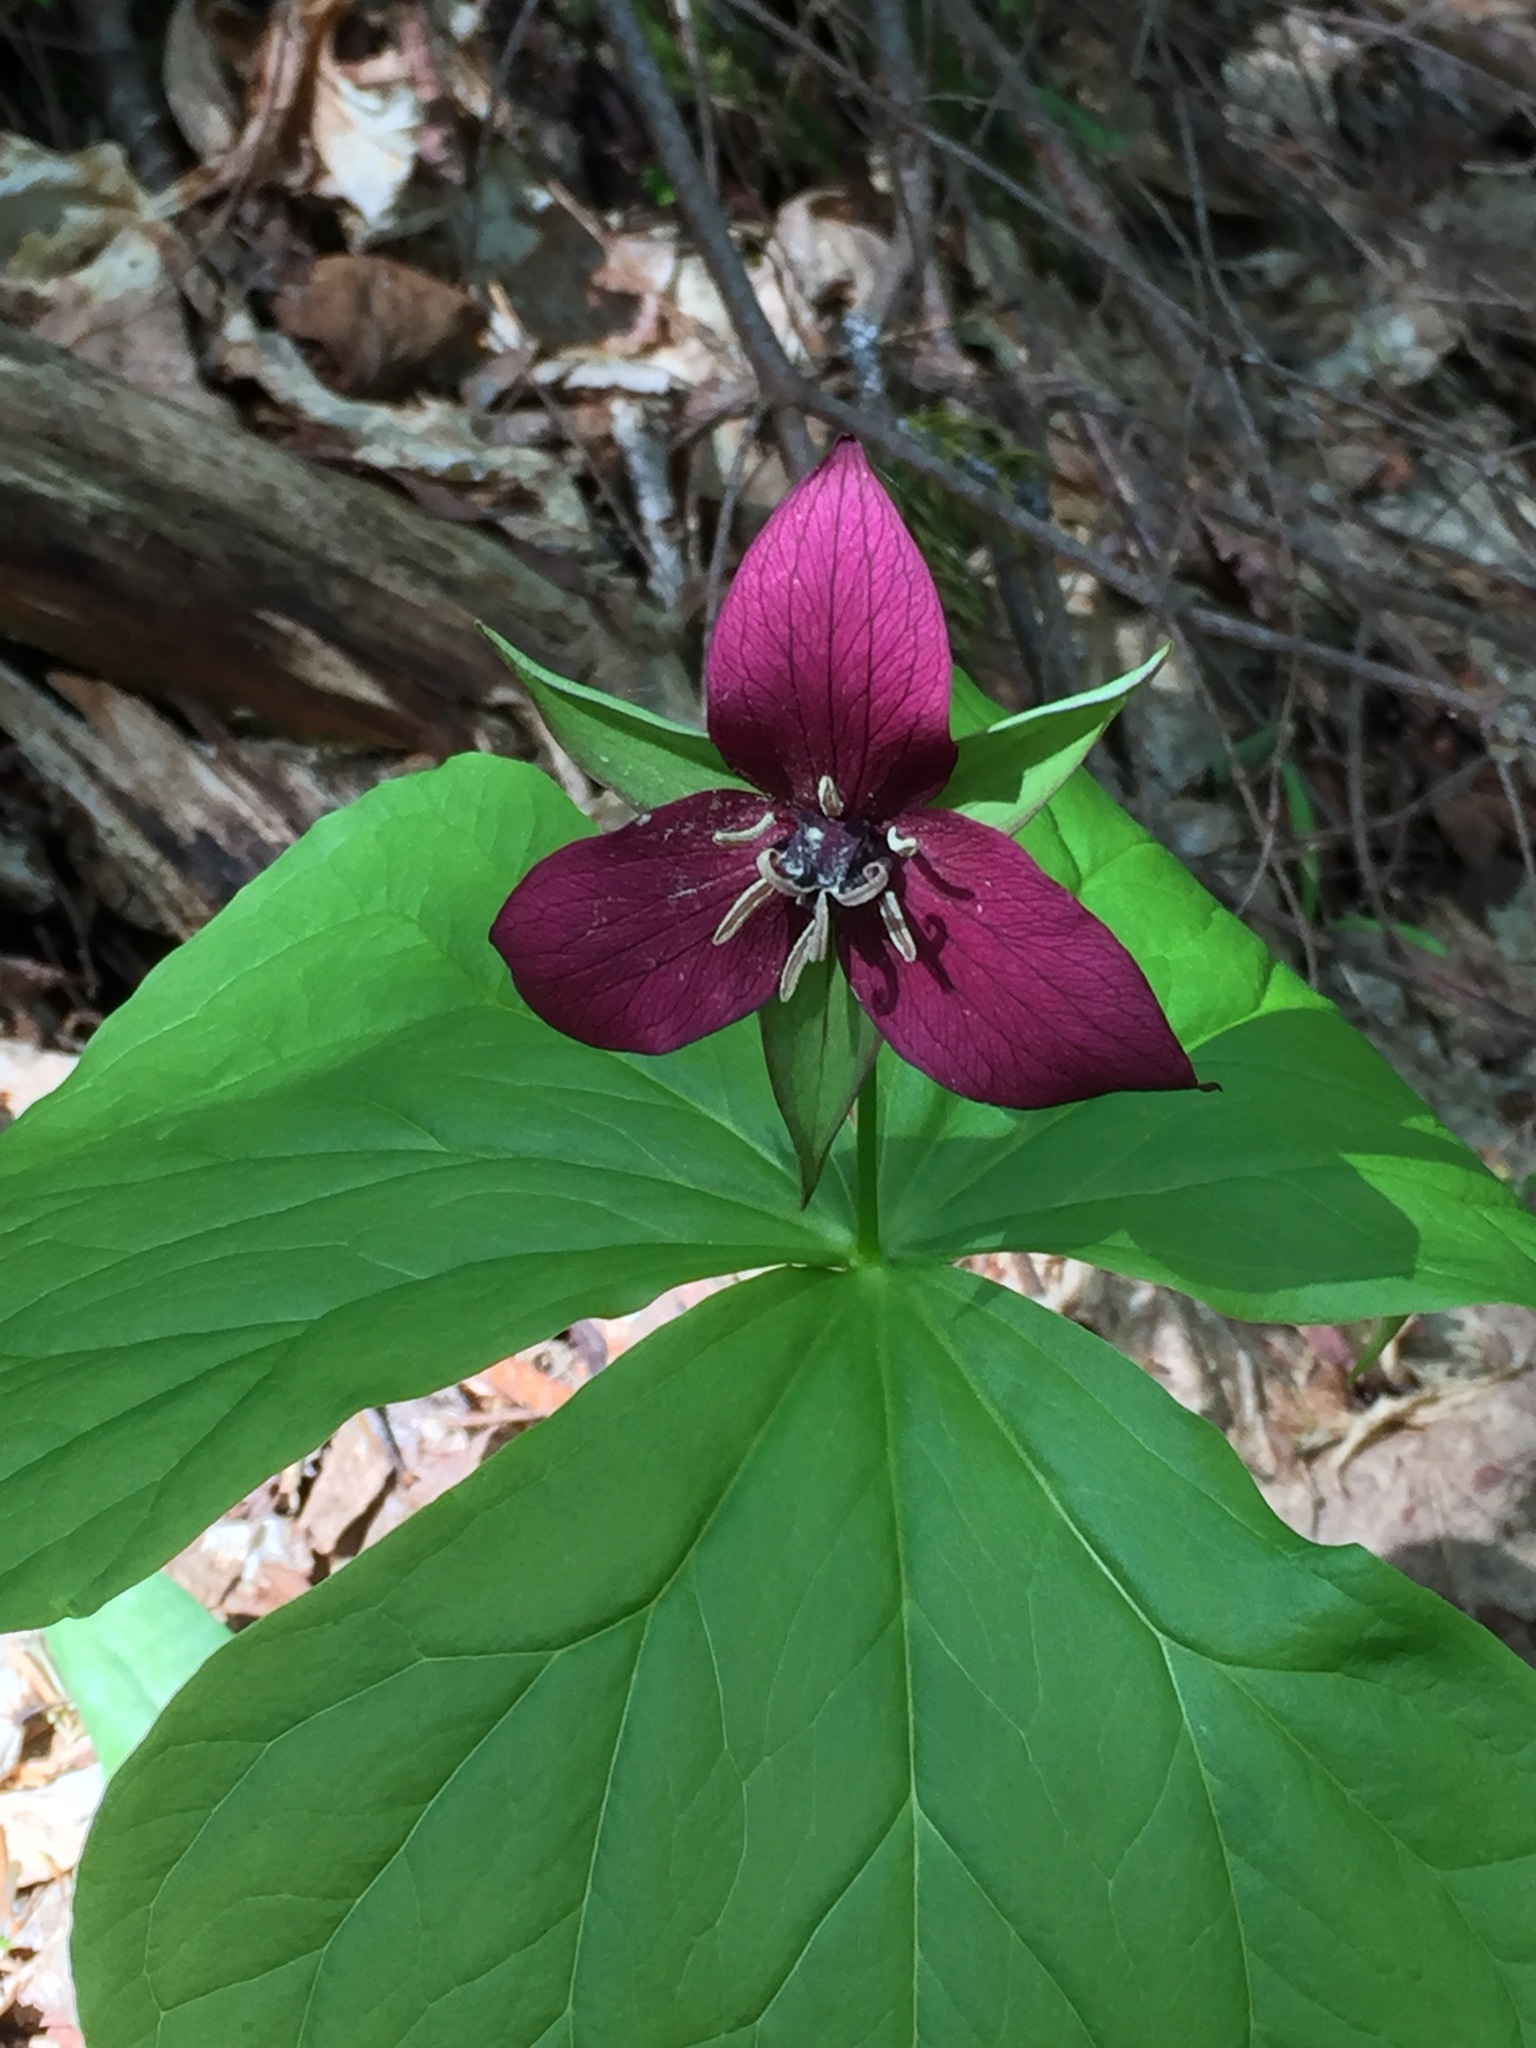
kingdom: Plantae
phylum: Tracheophyta
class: Liliopsida
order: Liliales
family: Melanthiaceae
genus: Trillium
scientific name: Trillium erectum
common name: Purple trillium
